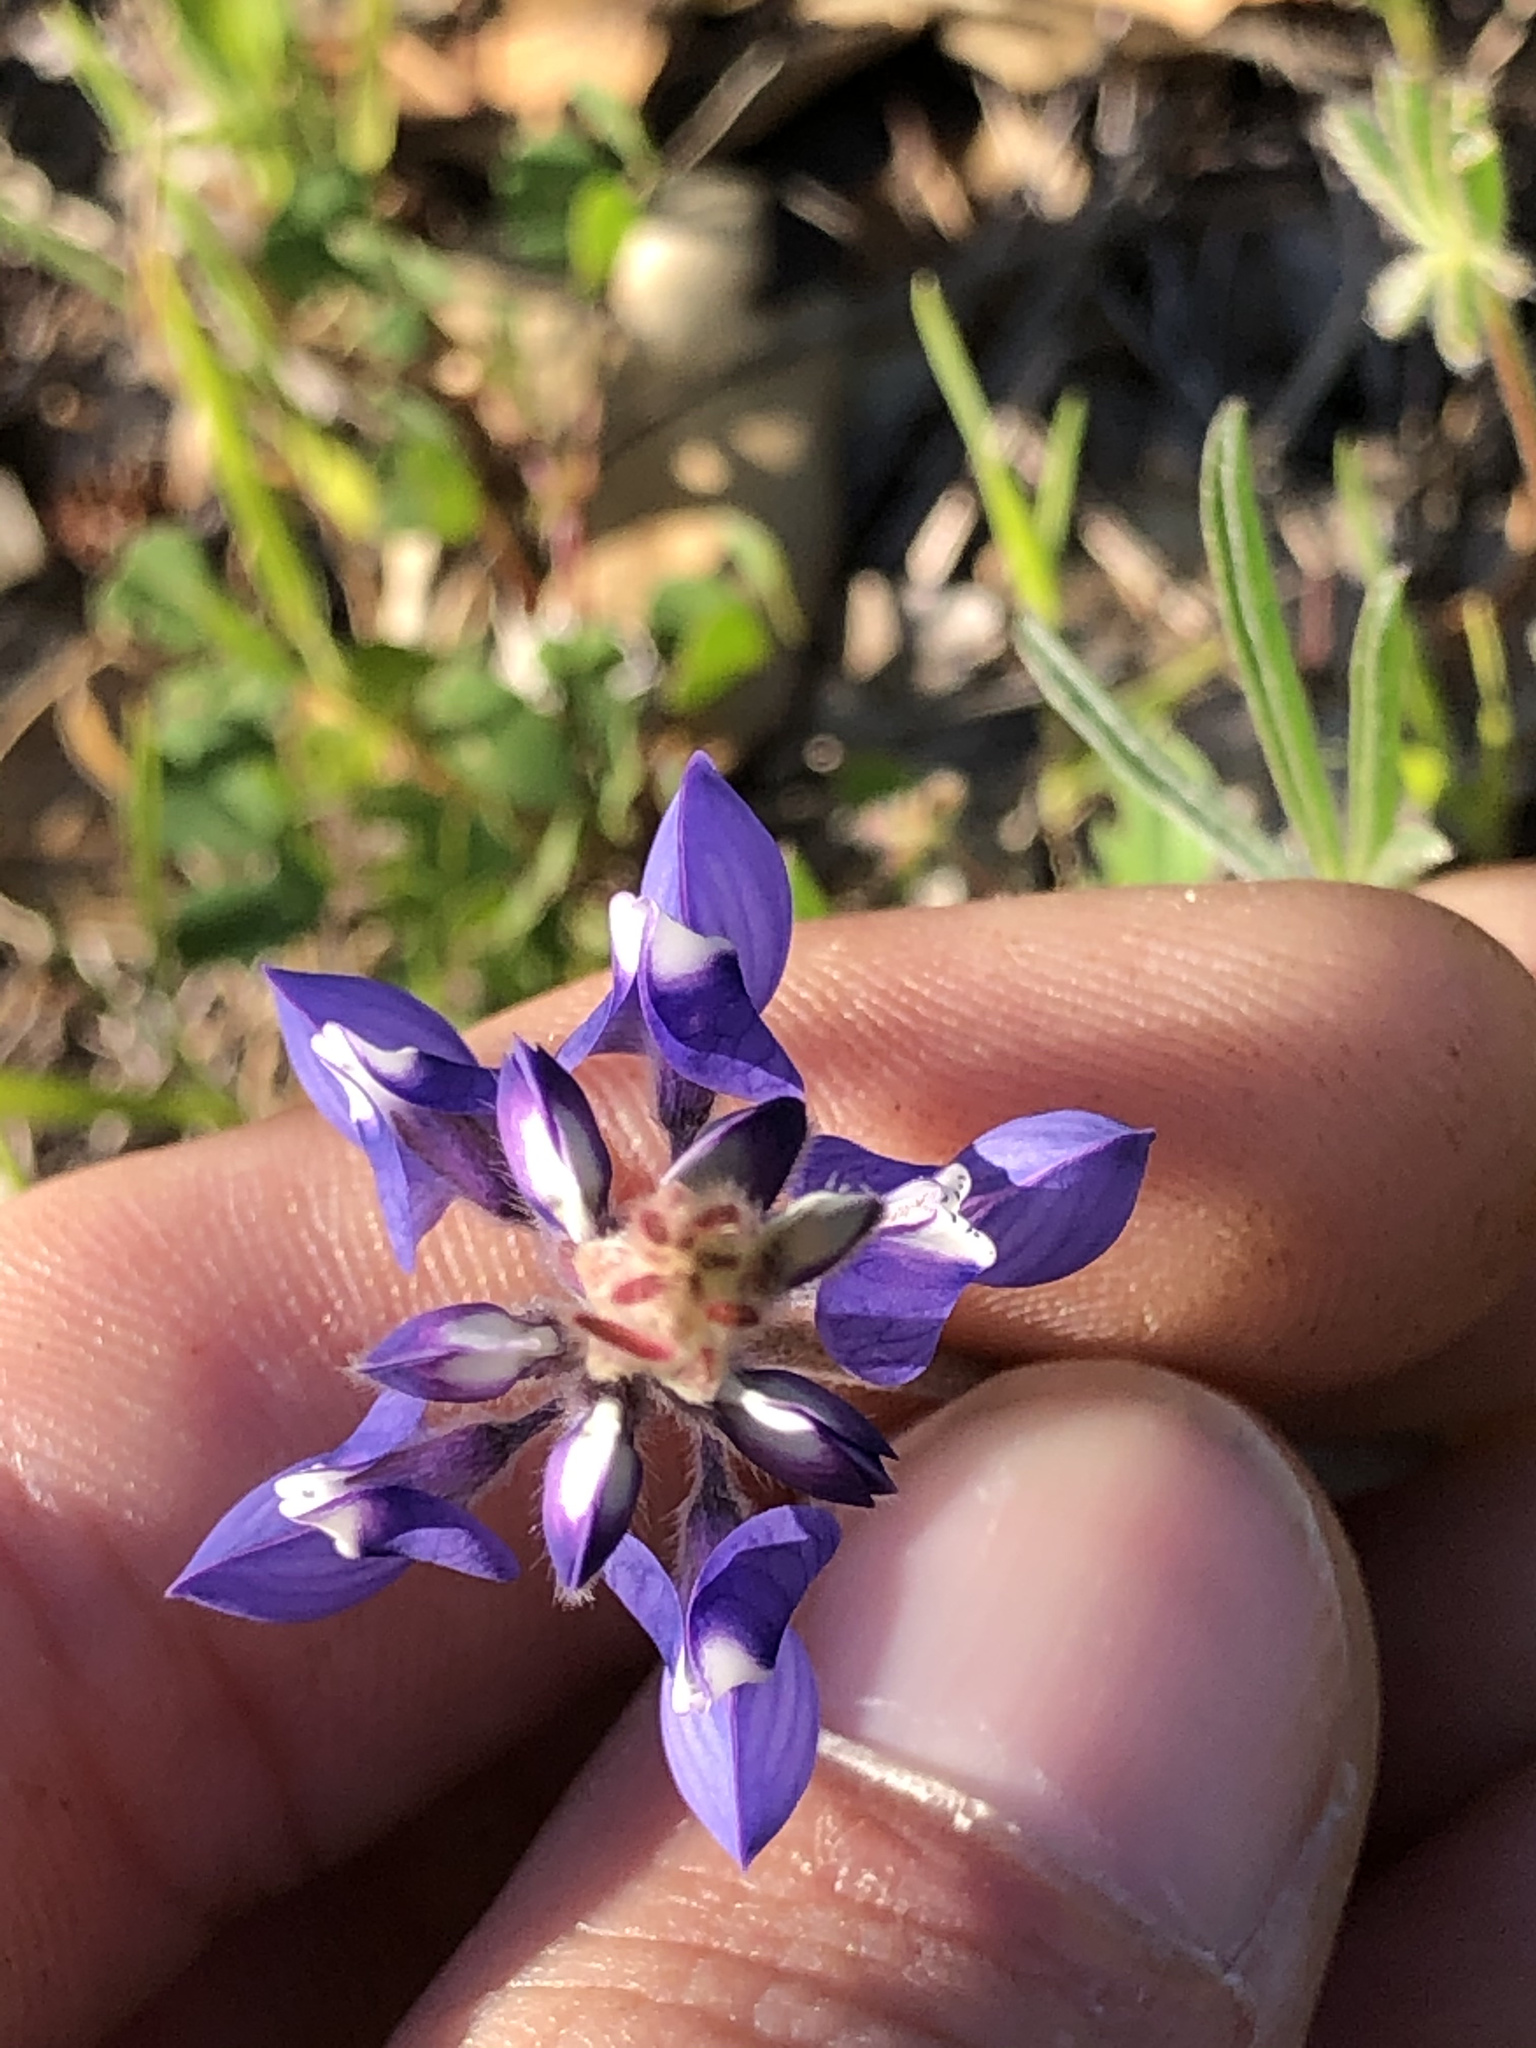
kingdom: Plantae
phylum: Tracheophyta
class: Magnoliopsida
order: Fabales
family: Fabaceae
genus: Lupinus
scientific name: Lupinus nanus
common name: Orean blue lupin
